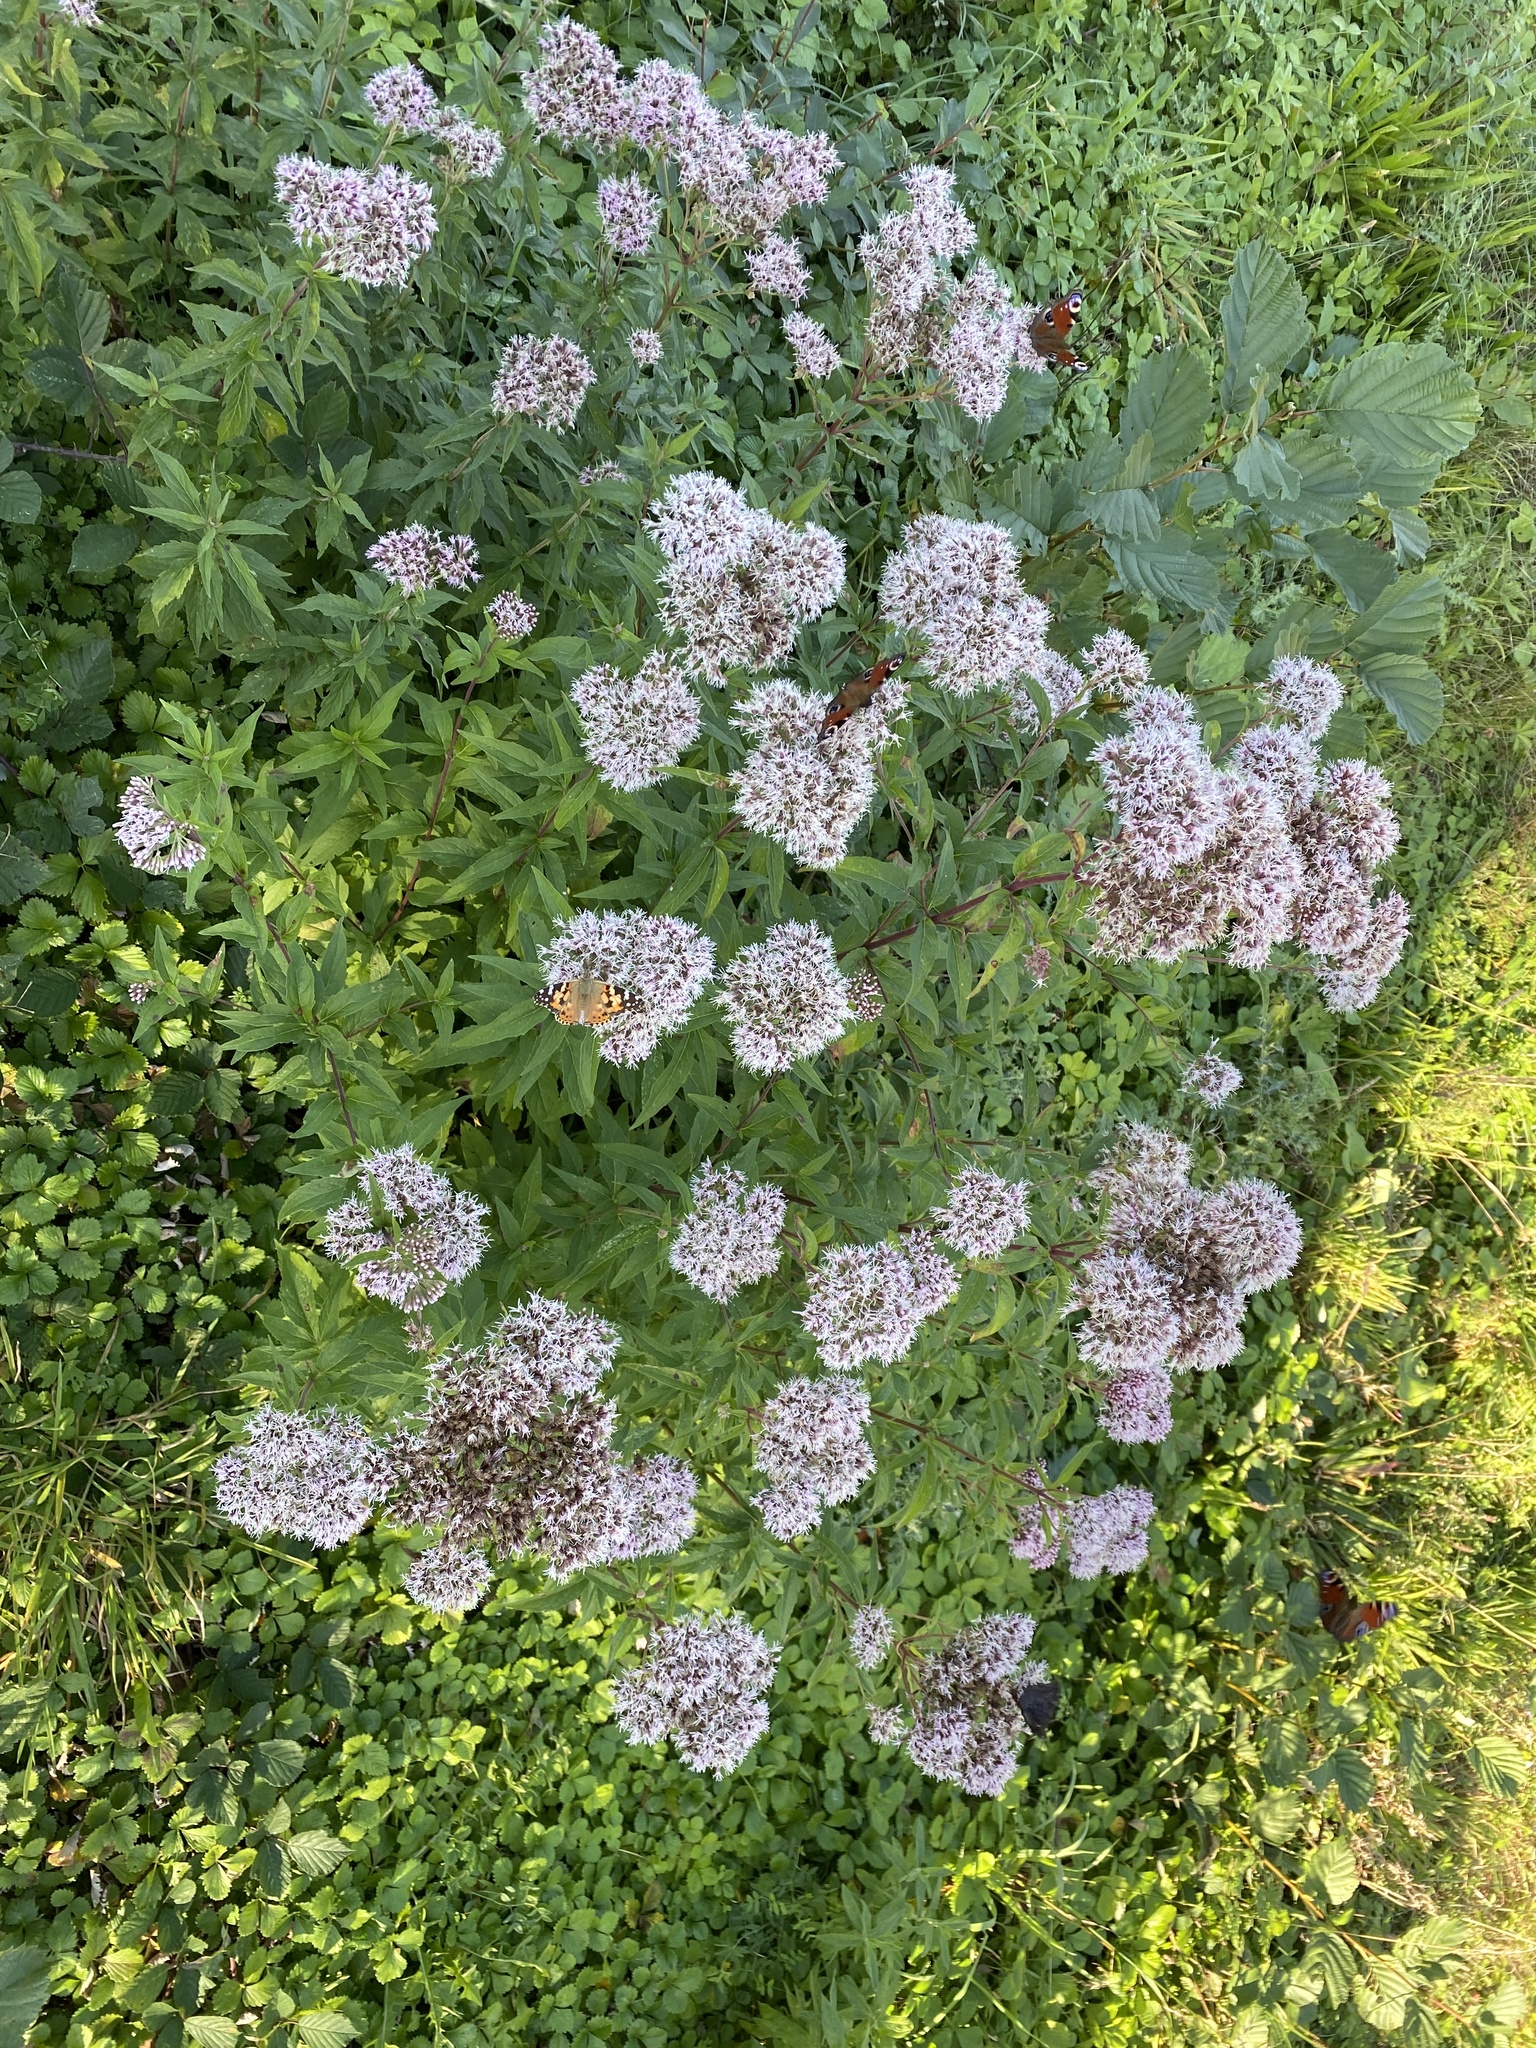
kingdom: Plantae
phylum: Tracheophyta
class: Magnoliopsida
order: Asterales
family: Asteraceae
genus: Eupatorium
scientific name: Eupatorium cannabinum
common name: Hemp-agrimony
